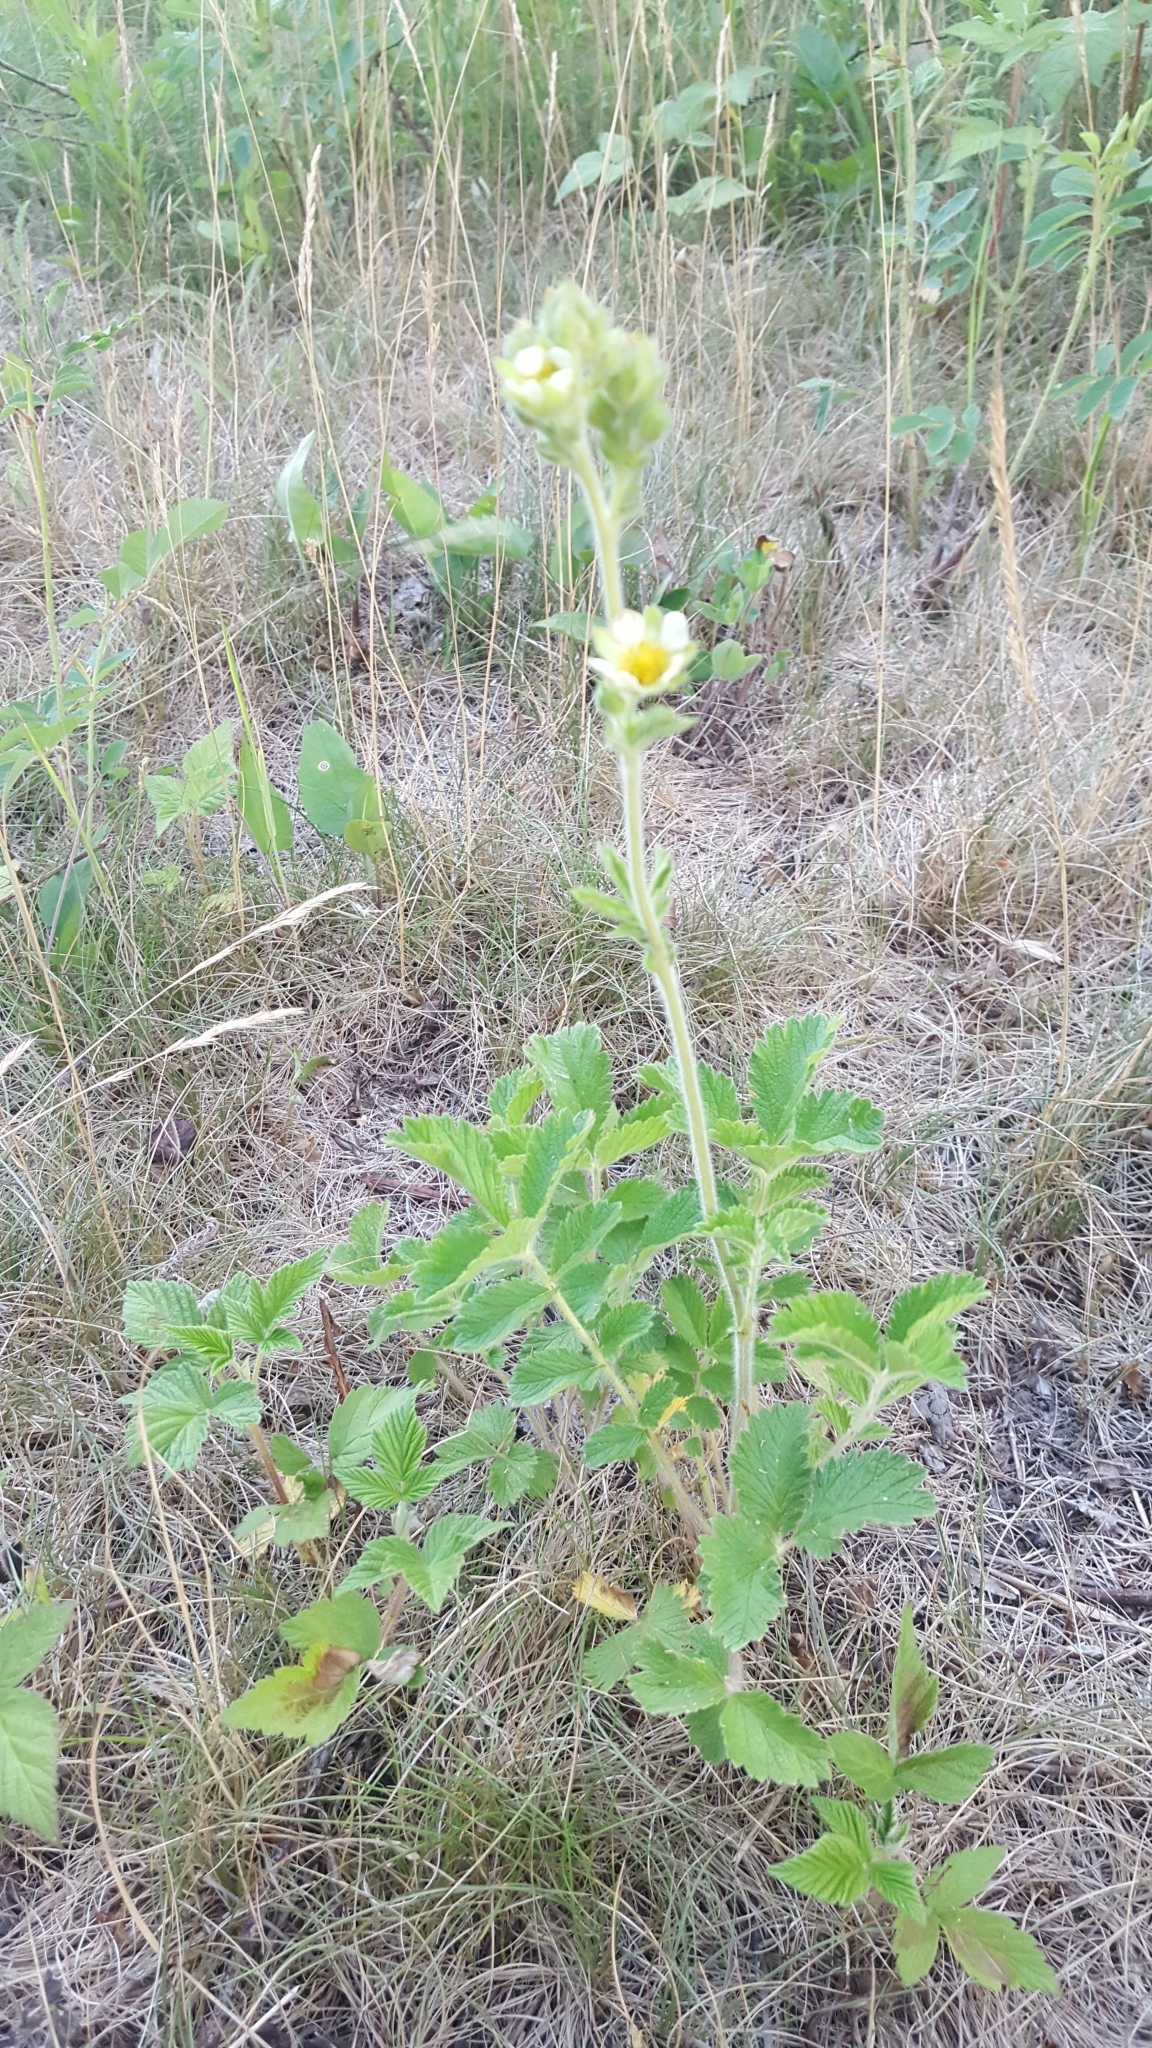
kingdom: Plantae
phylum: Tracheophyta
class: Magnoliopsida
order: Rosales
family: Rosaceae
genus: Drymocallis
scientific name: Drymocallis arguta
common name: Tall cinquefoil
